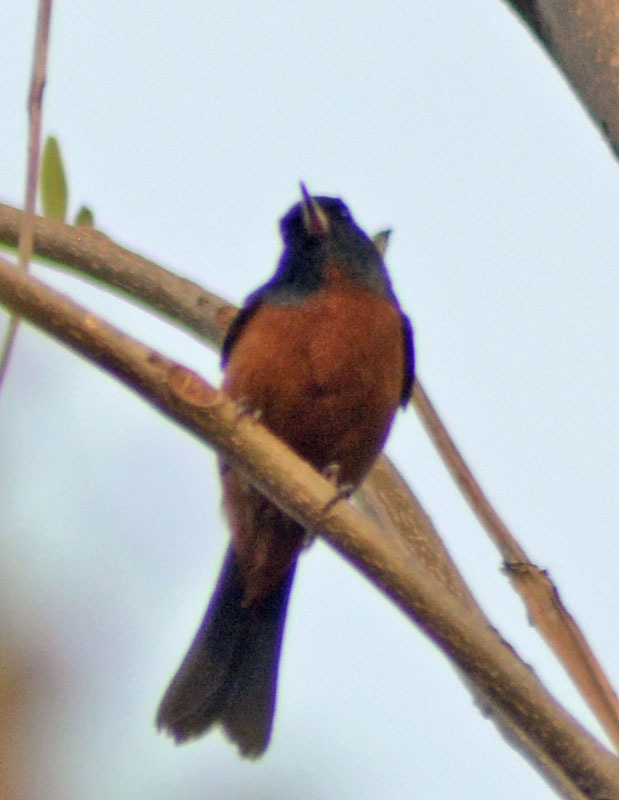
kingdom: Animalia
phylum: Chordata
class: Aves
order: Passeriformes
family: Thraupidae
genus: Diglossa
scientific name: Diglossa baritula
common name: Cinnamon-bellied flowerpiercer
